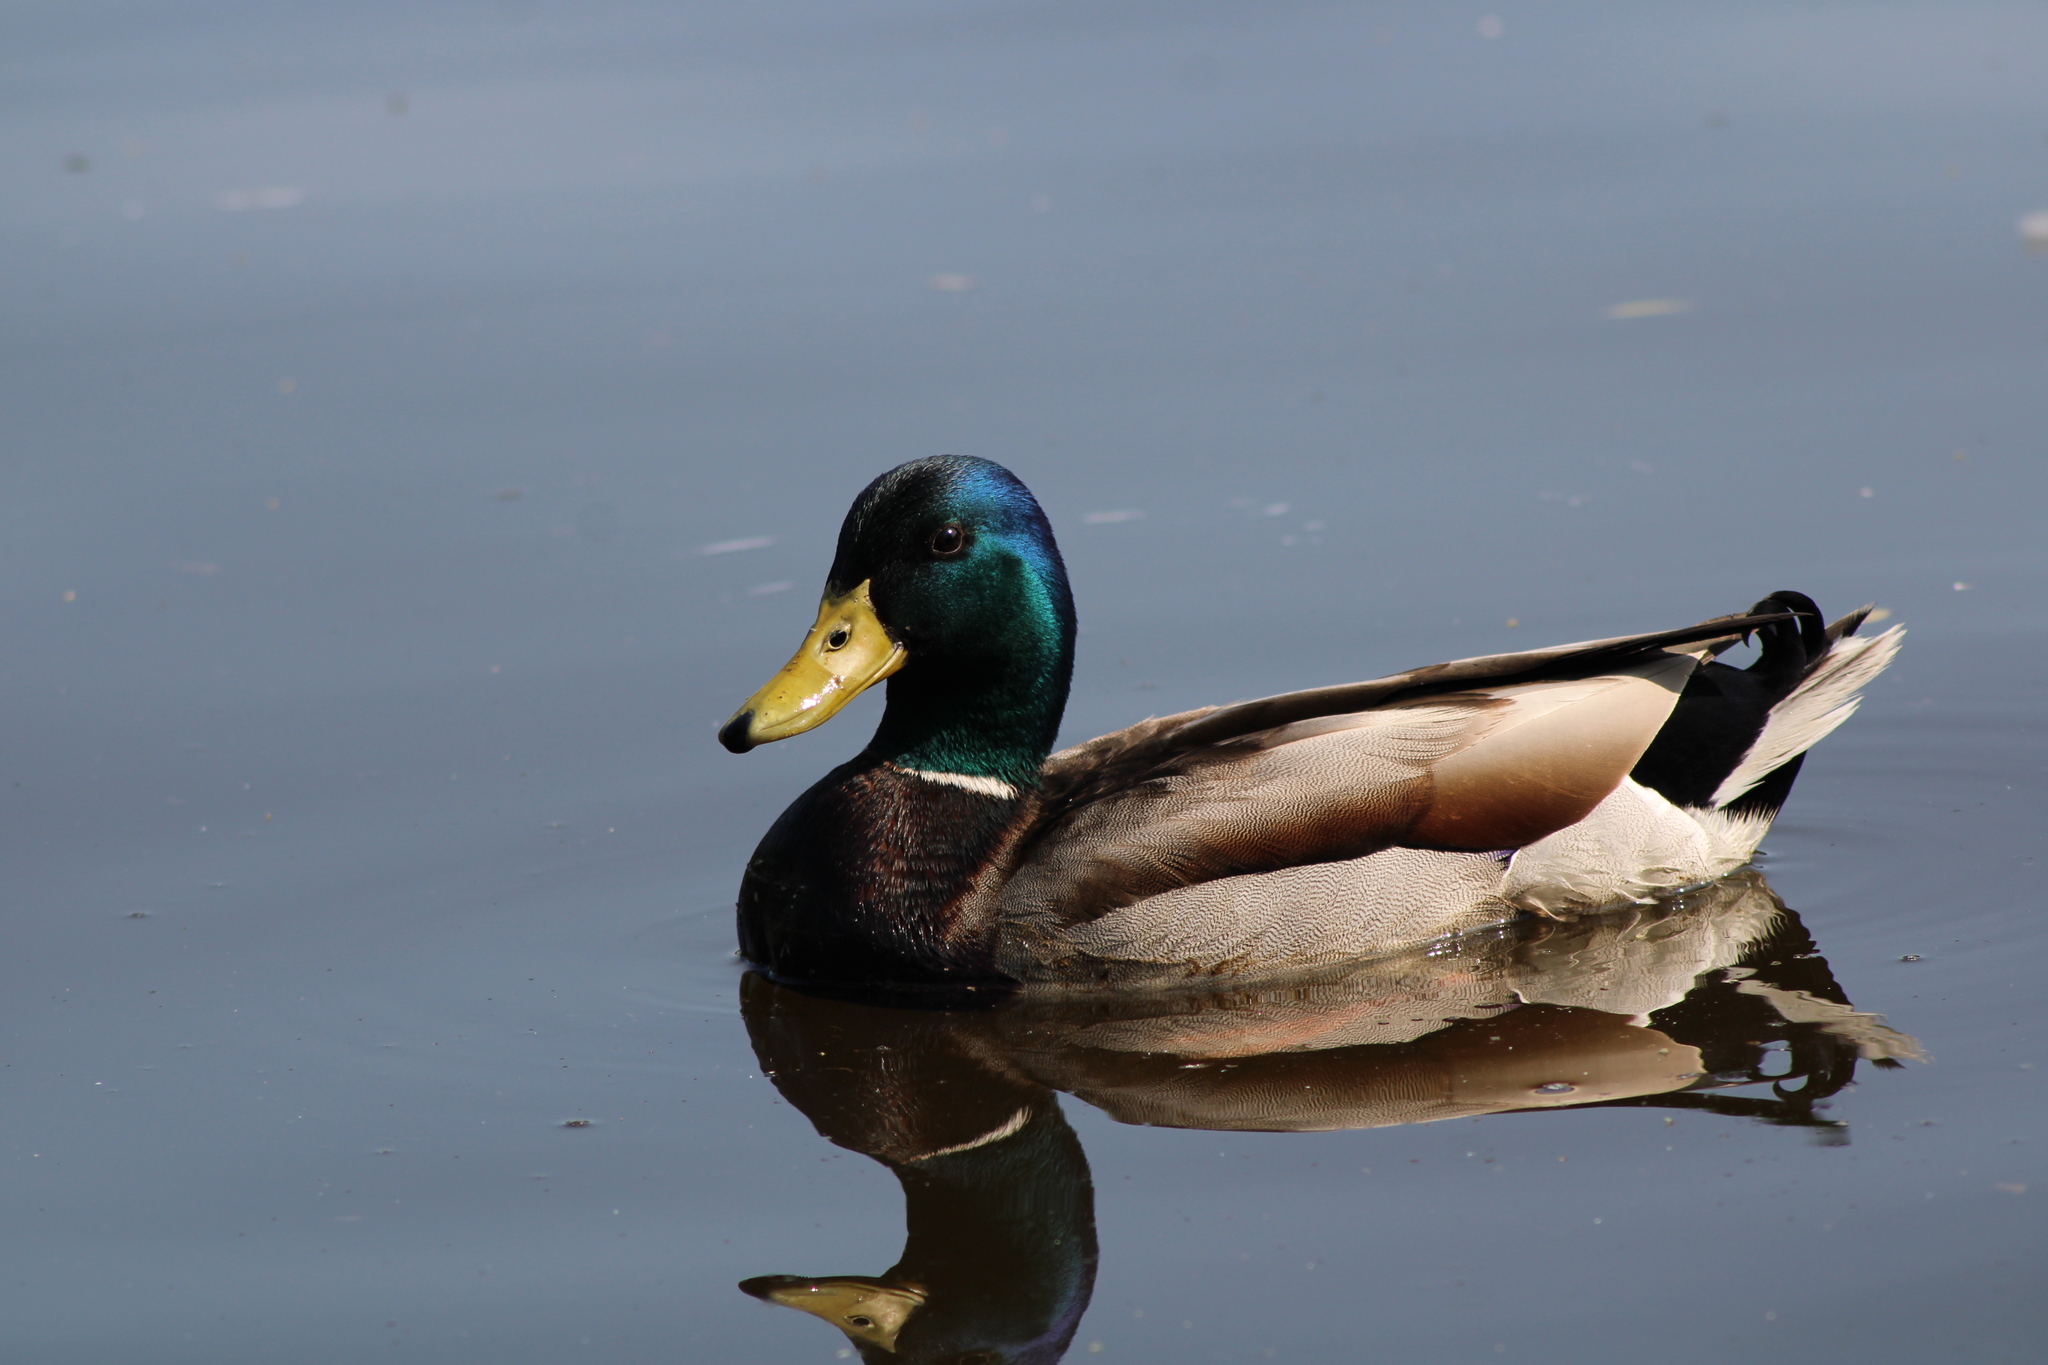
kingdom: Animalia
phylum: Chordata
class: Aves
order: Anseriformes
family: Anatidae
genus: Anas
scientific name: Anas platyrhynchos
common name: Mallard
